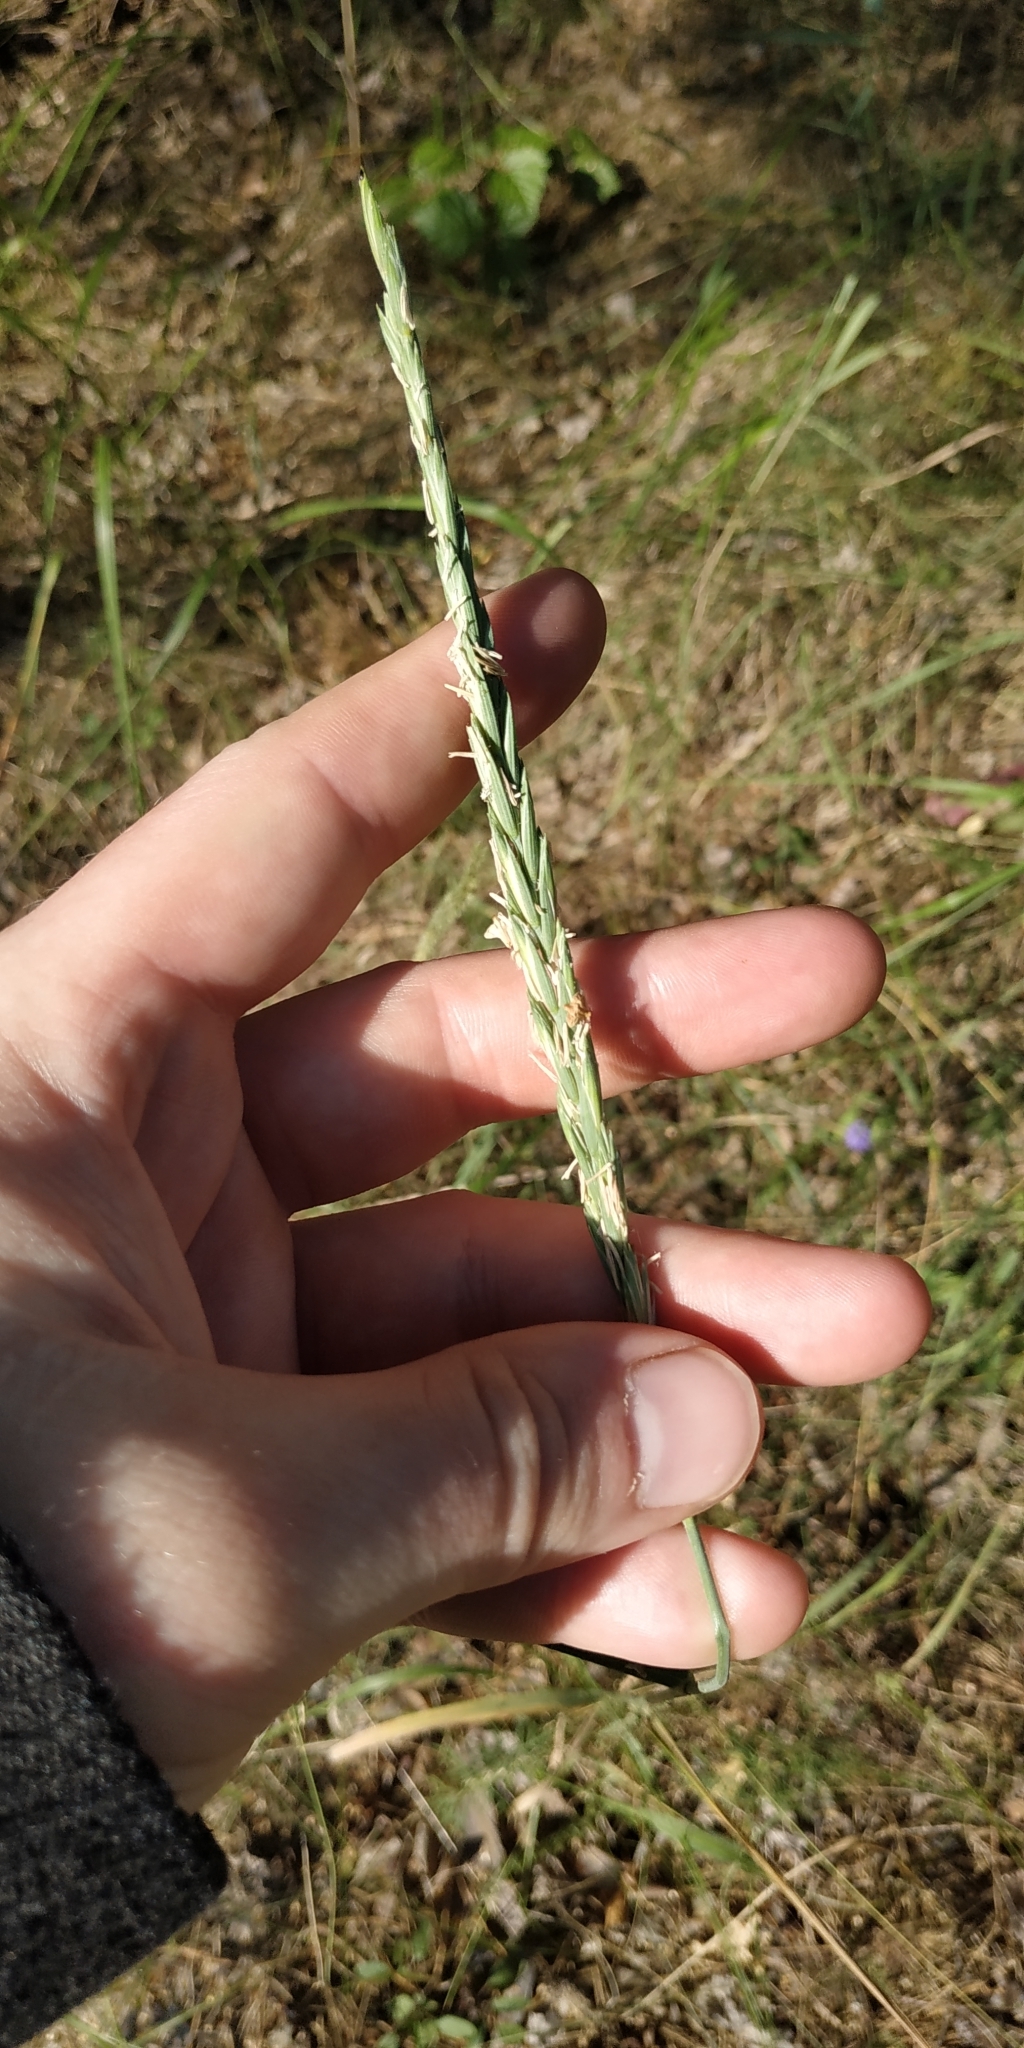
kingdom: Plantae
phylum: Tracheophyta
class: Liliopsida
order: Poales
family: Poaceae
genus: Elymus
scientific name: Elymus repens
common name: Quackgrass
